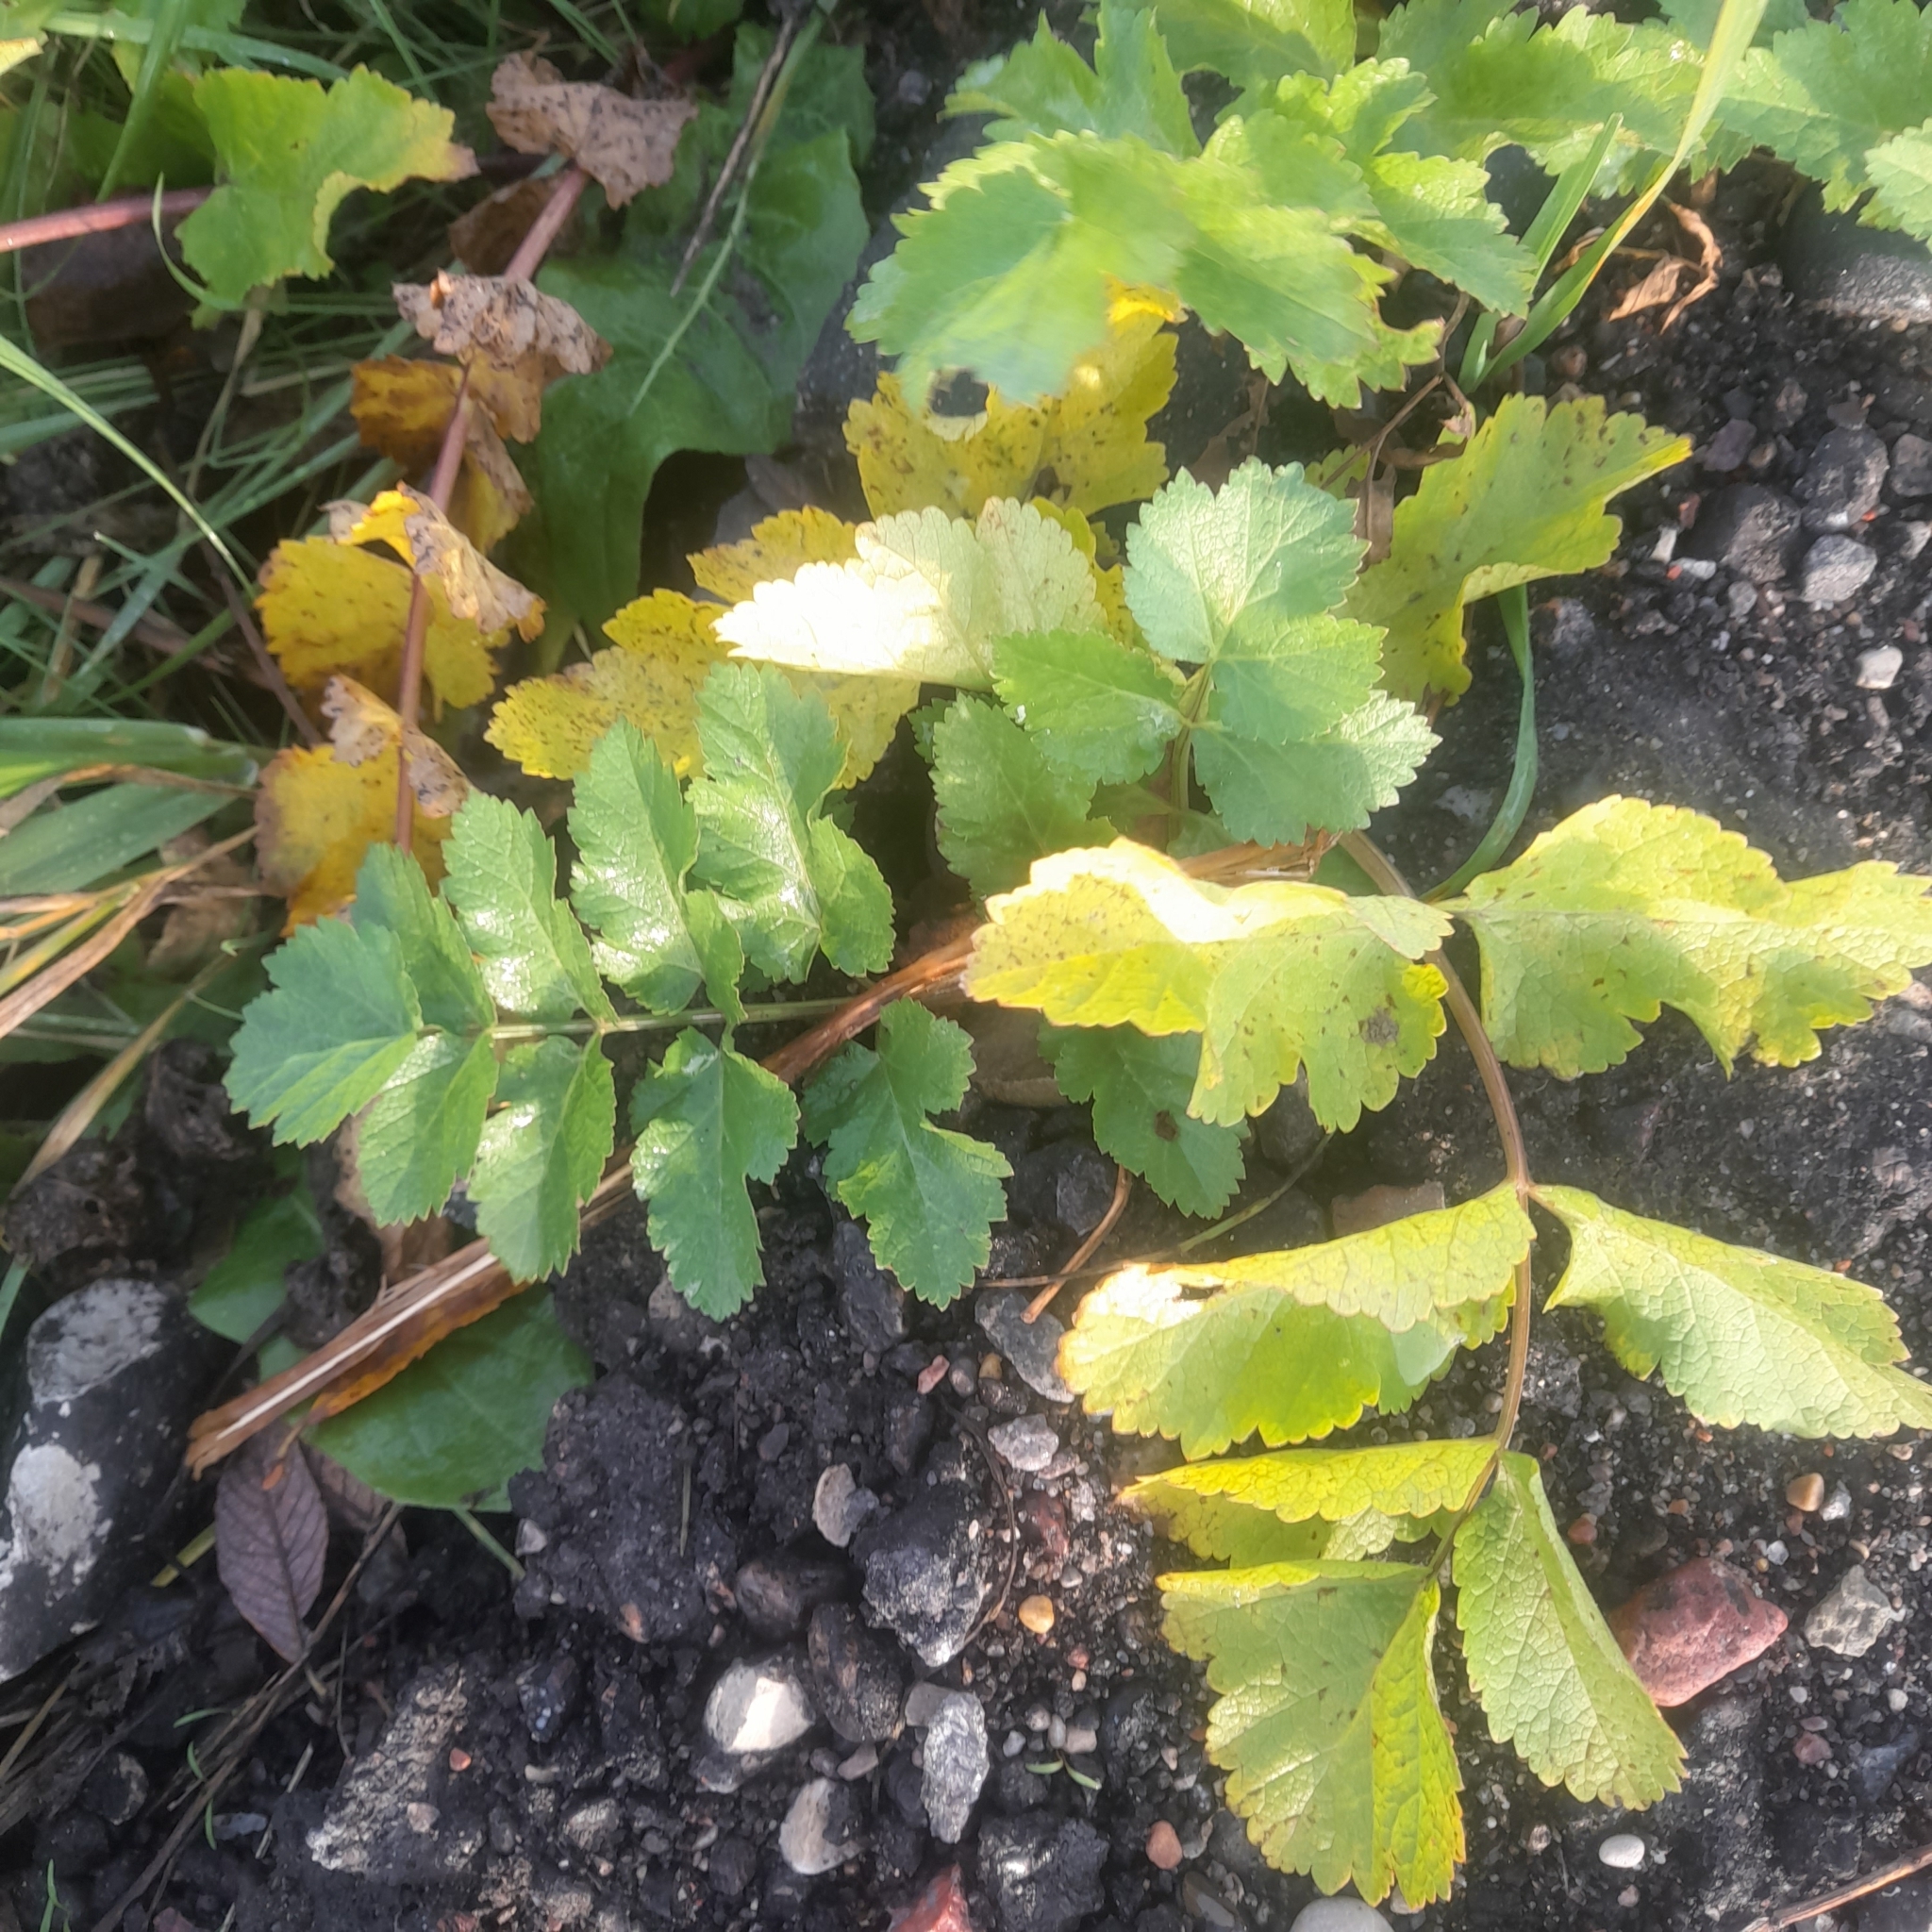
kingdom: Plantae
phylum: Tracheophyta
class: Magnoliopsida
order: Apiales
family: Apiaceae
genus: Pastinaca
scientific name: Pastinaca sativa
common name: Wild parsnip
